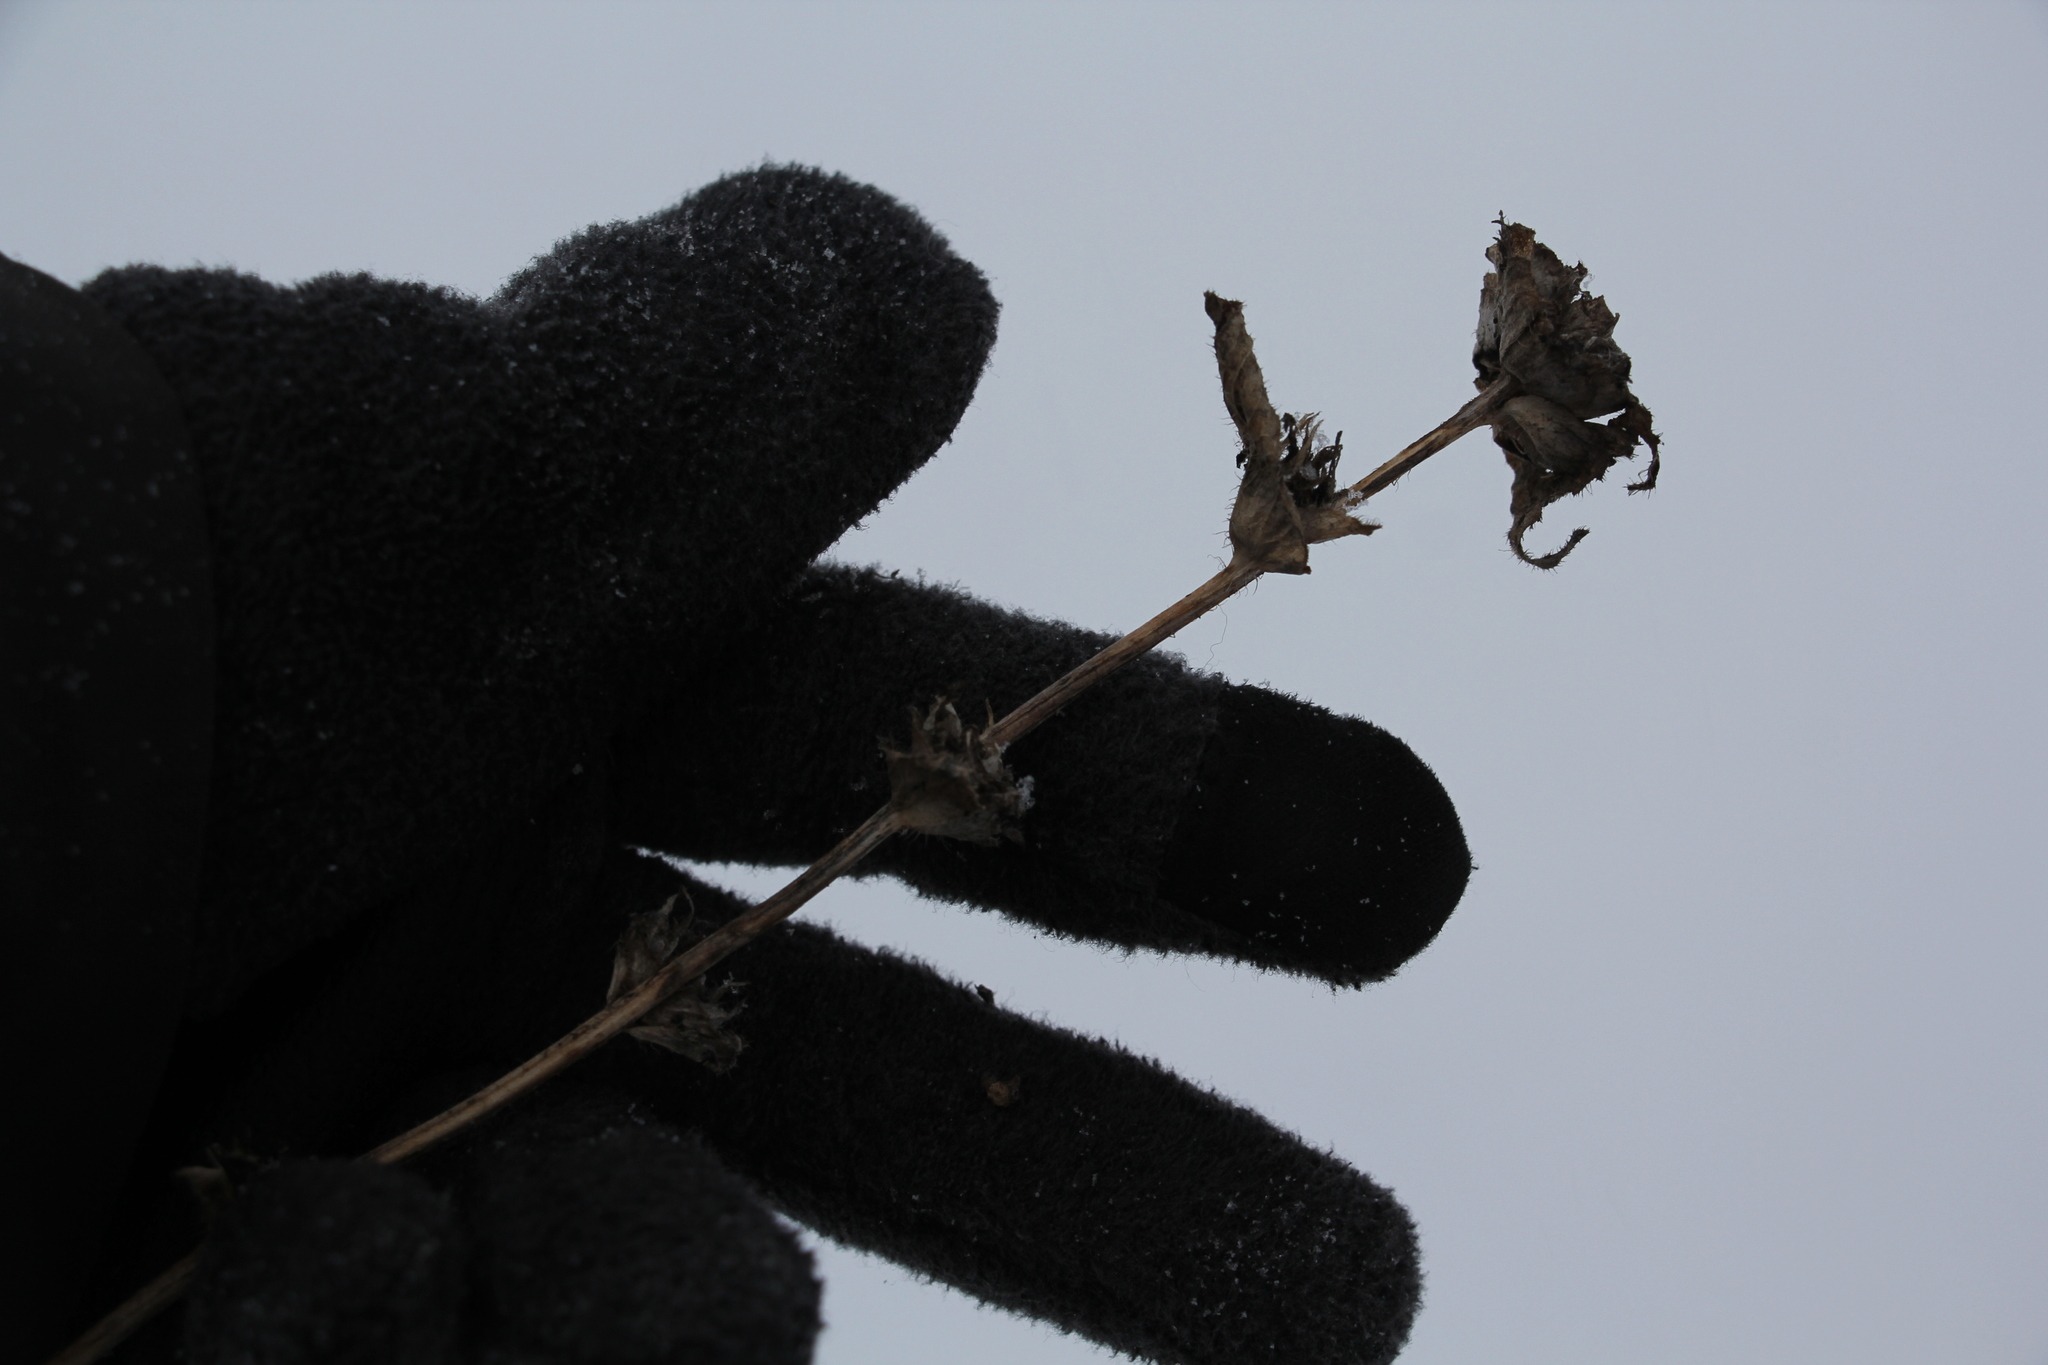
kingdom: Plantae
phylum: Tracheophyta
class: Magnoliopsida
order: Asterales
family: Campanulaceae
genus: Campanula
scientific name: Campanula glomerata
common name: Clustered bellflower
